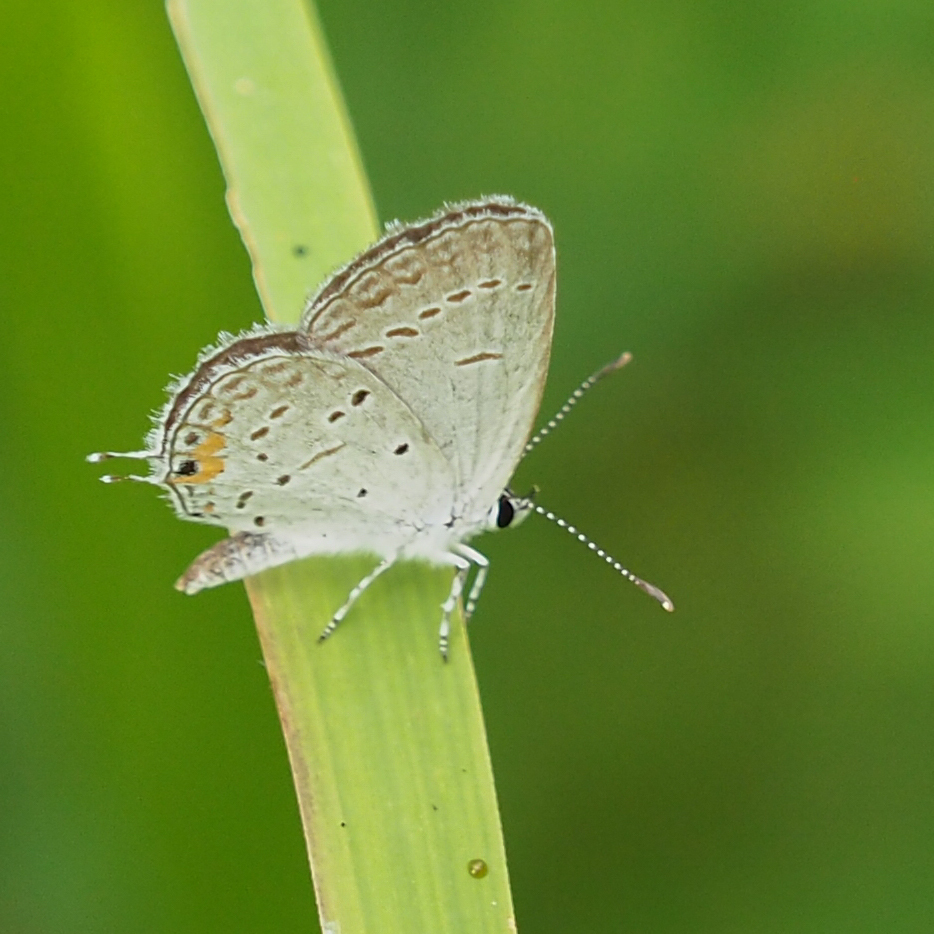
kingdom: Animalia
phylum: Arthropoda
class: Insecta
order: Lepidoptera
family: Lycaenidae
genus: Elkalyce
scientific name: Elkalyce comyntas
